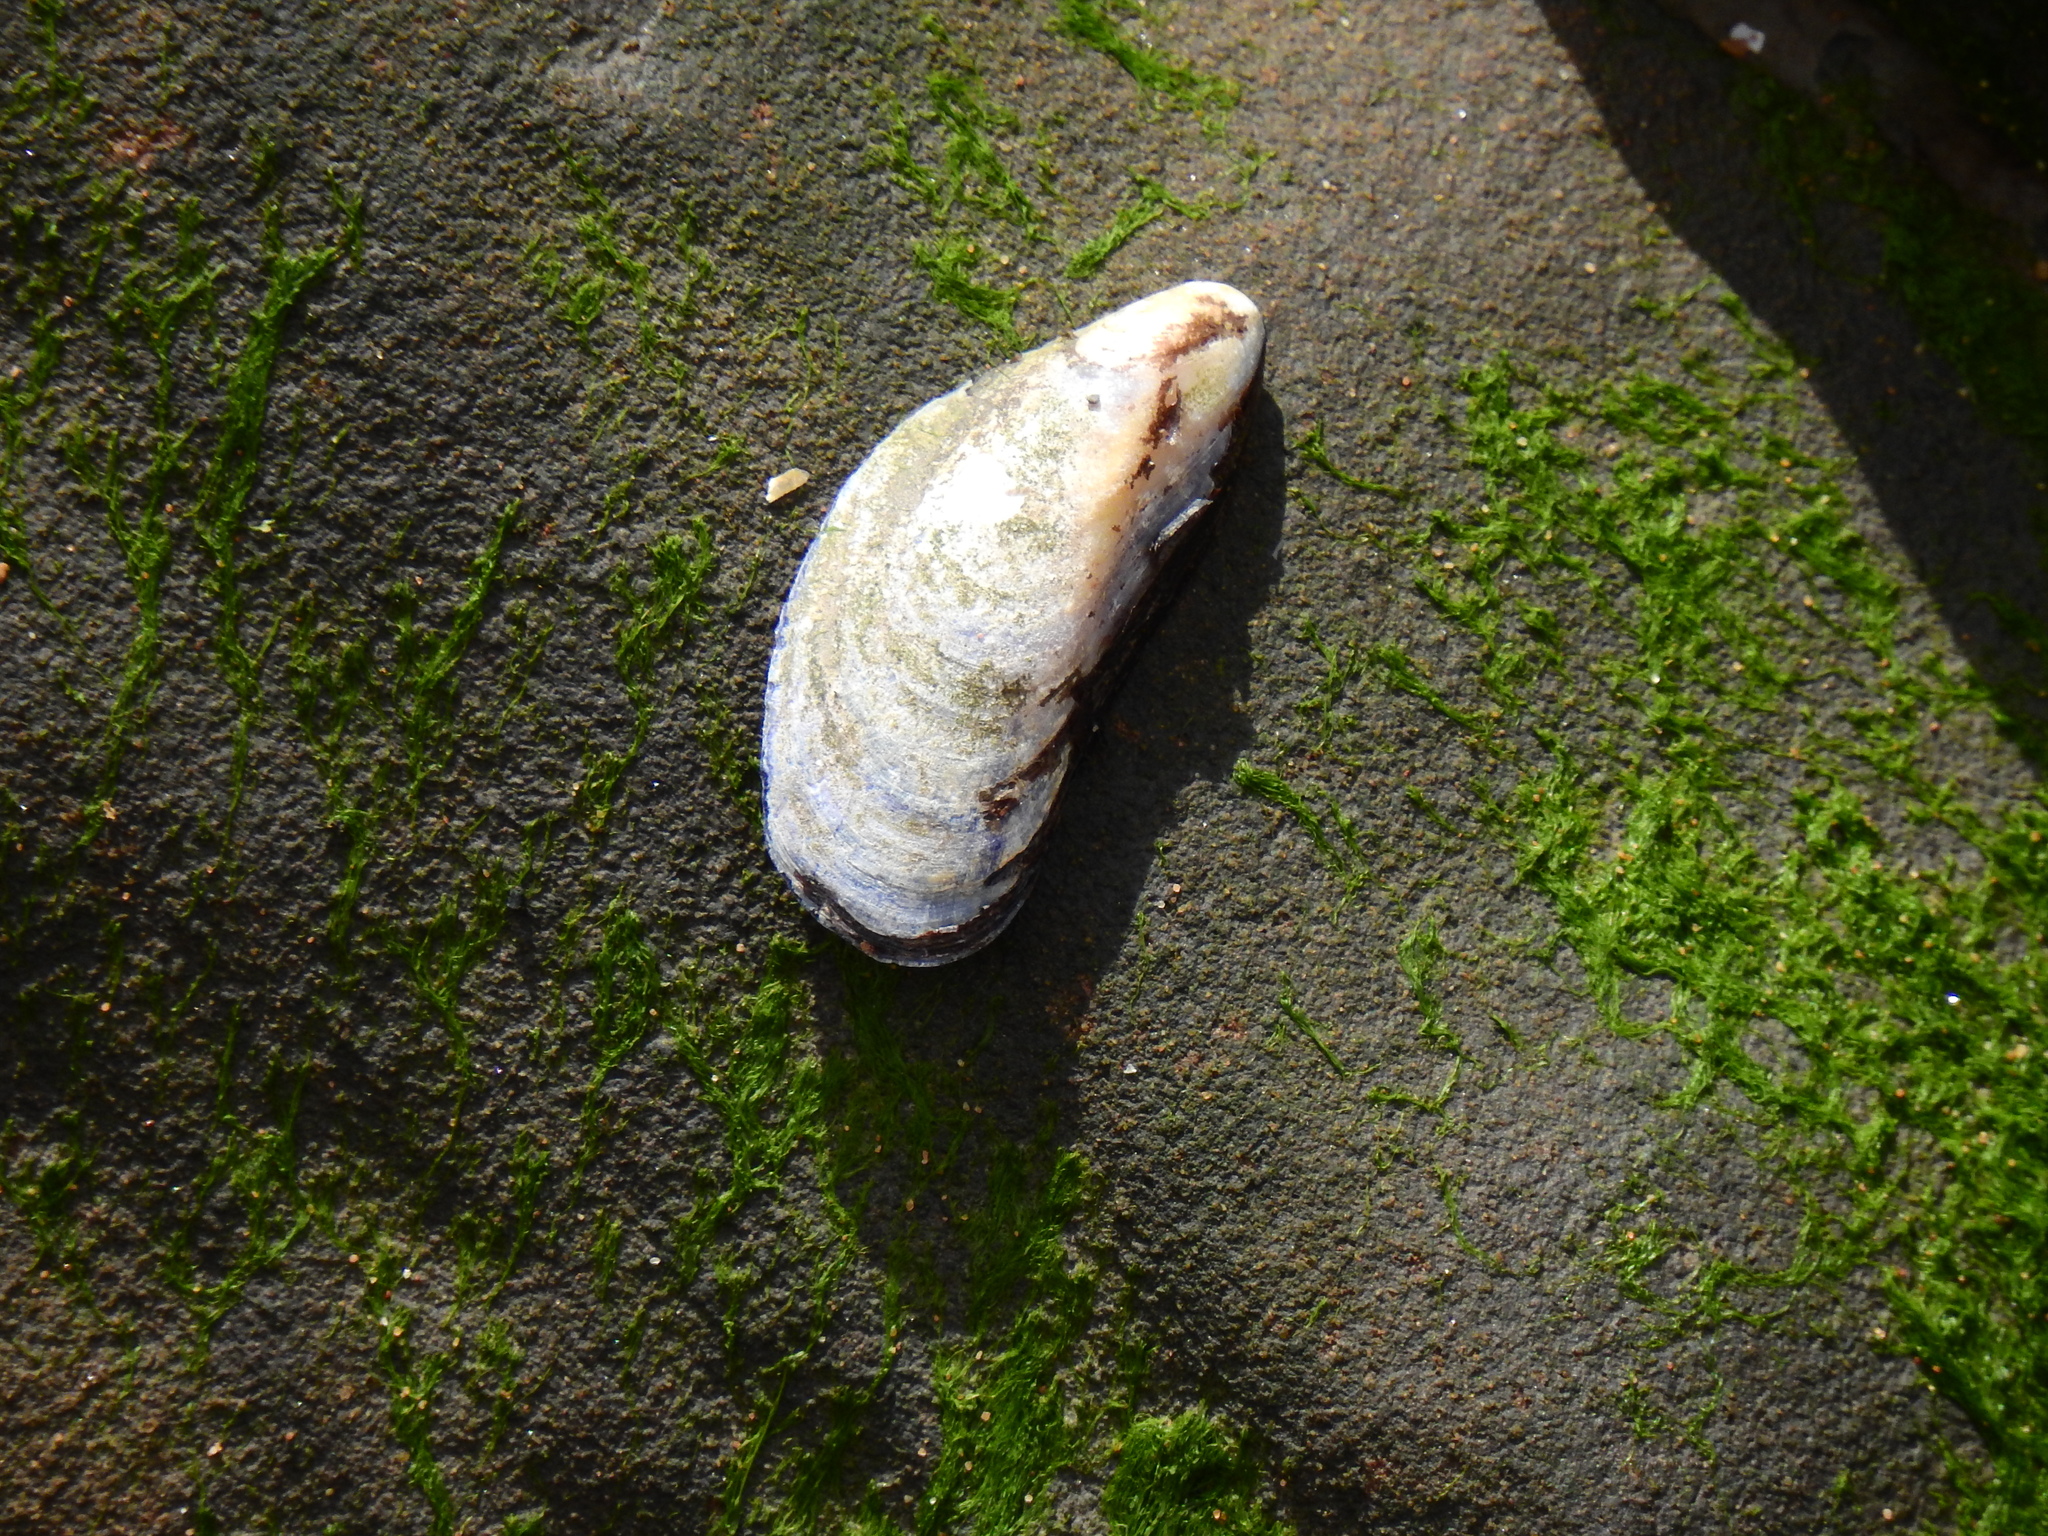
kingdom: Animalia
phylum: Mollusca
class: Bivalvia
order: Mytilida
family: Mytilidae
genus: Mytilus
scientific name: Mytilus edulis
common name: Blue mussel
